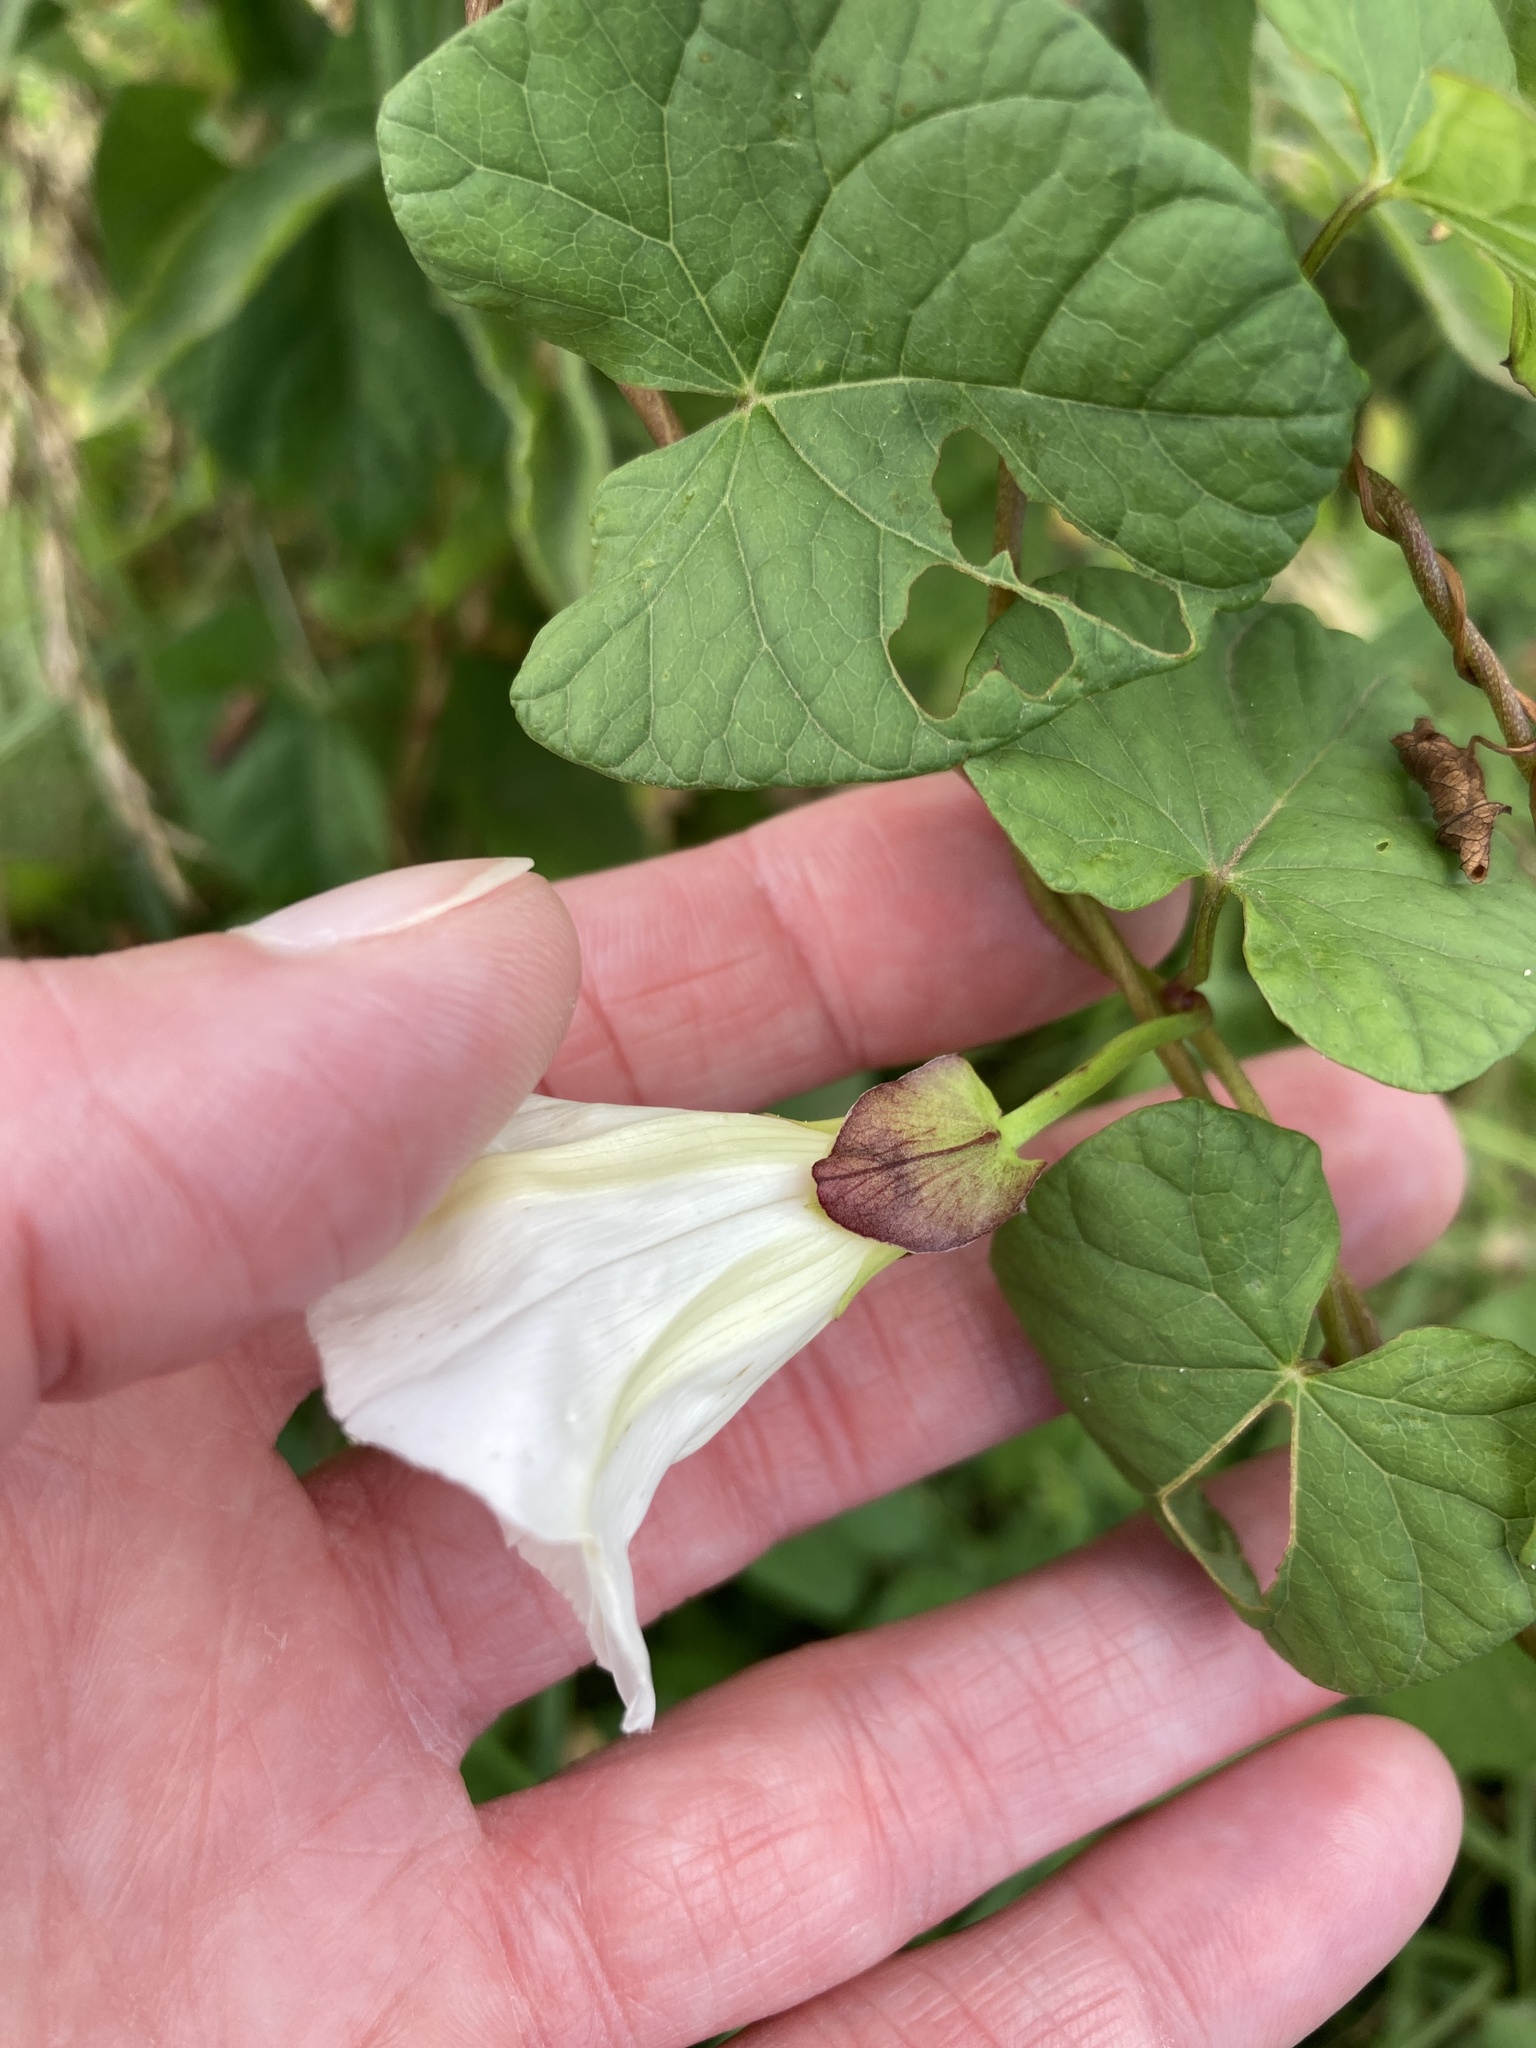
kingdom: Plantae
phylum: Tracheophyta
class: Magnoliopsida
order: Solanales
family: Convolvulaceae
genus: Calystegia
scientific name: Calystegia sepium
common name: Hedge bindweed
